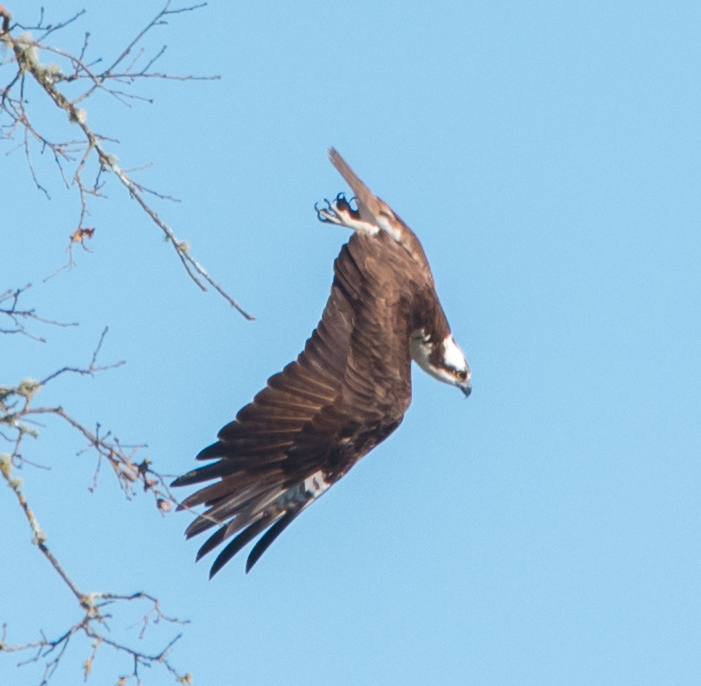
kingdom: Animalia
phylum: Chordata
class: Aves
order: Accipitriformes
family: Pandionidae
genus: Pandion
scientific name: Pandion haliaetus
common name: Osprey
